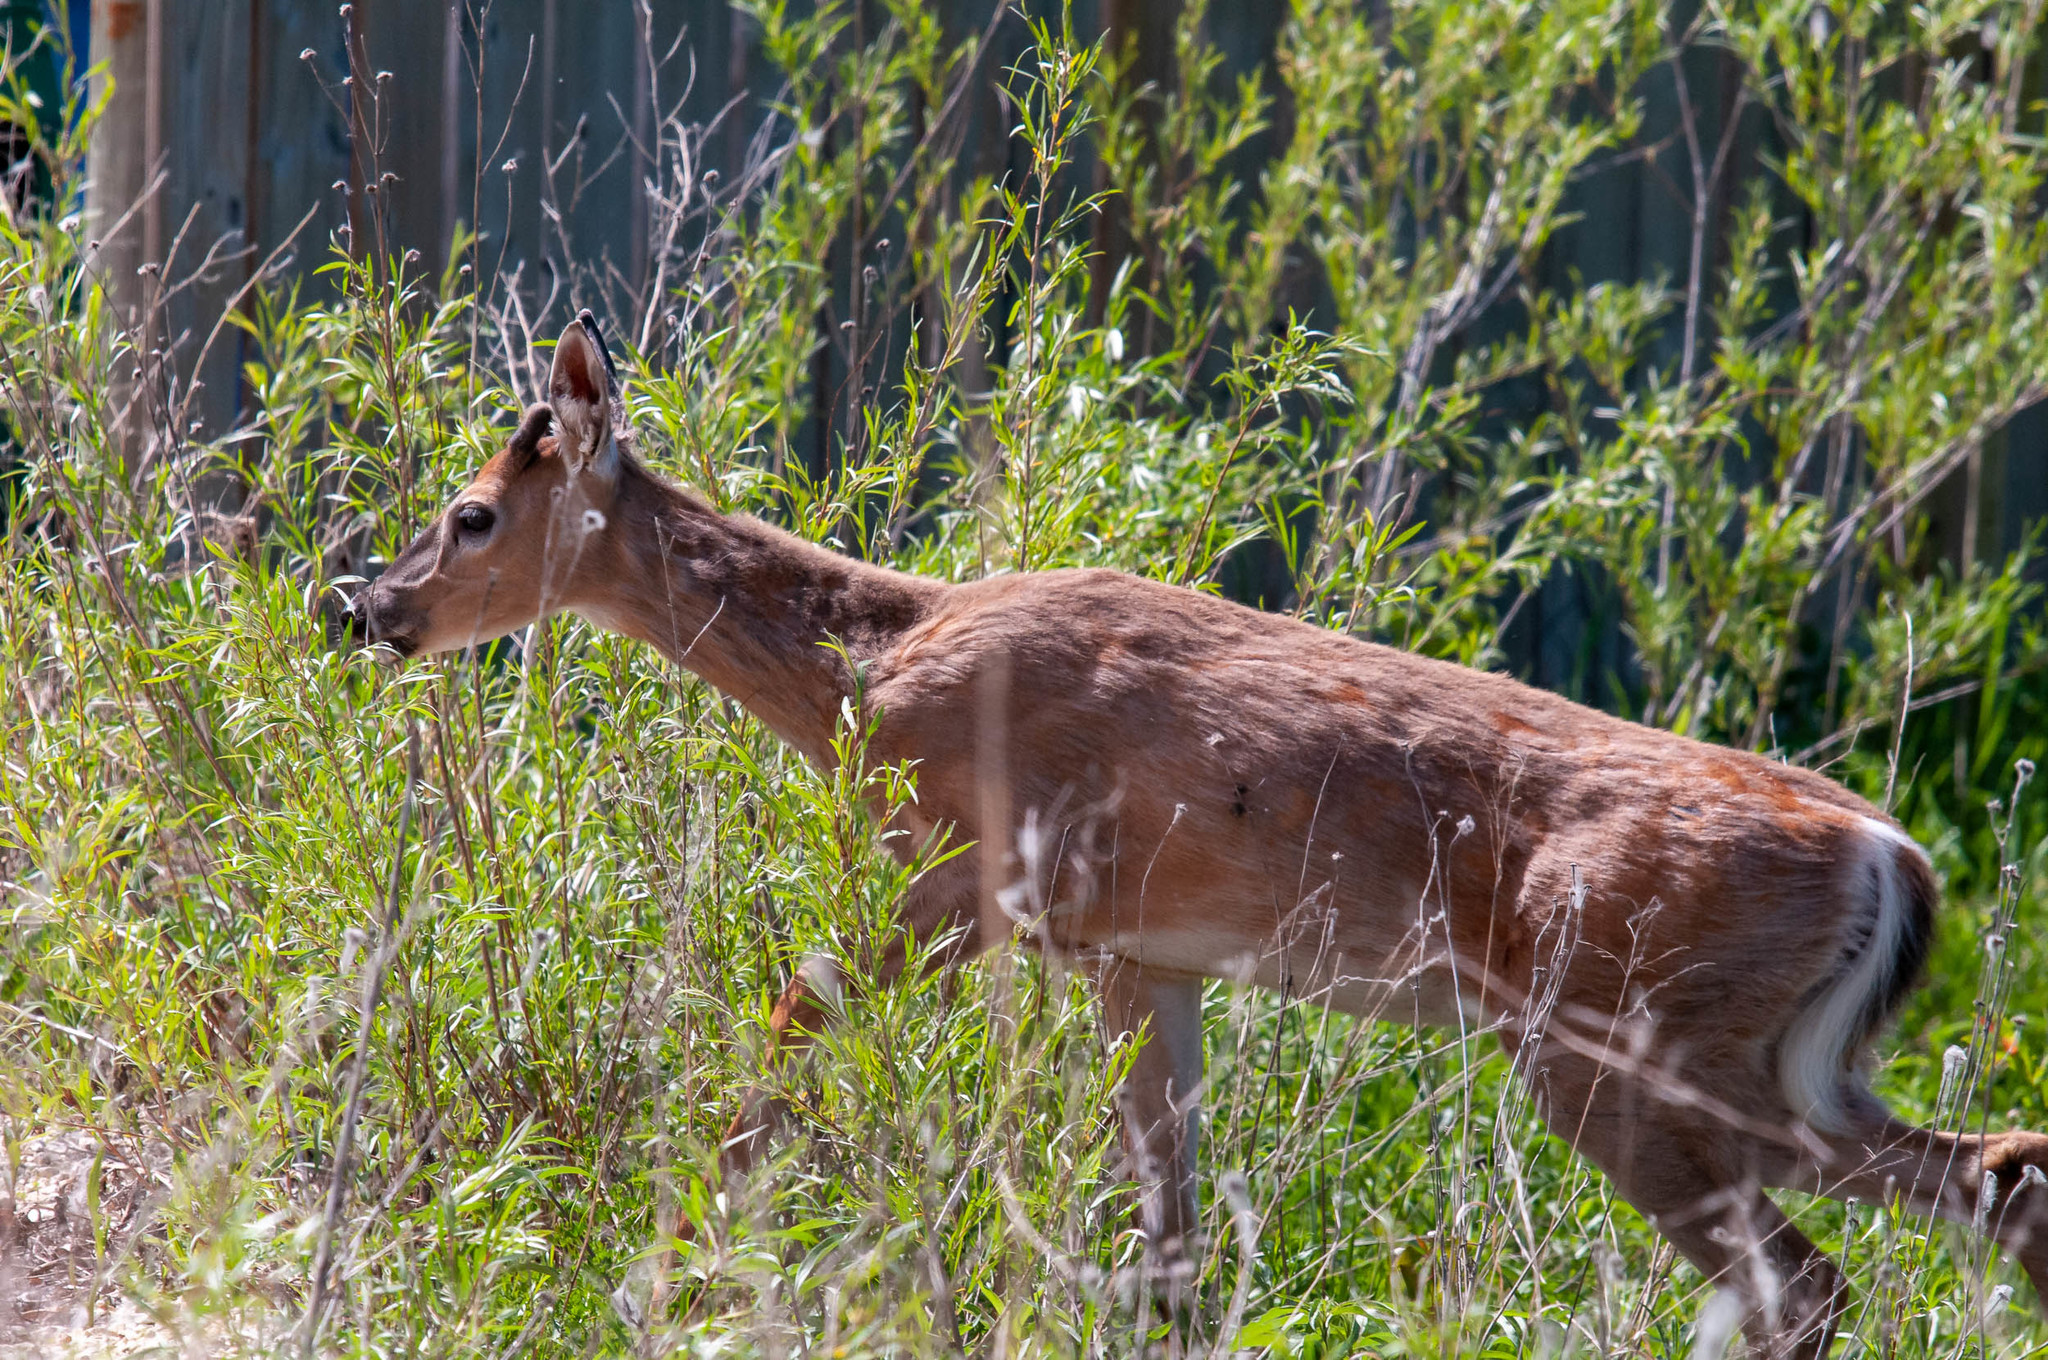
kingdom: Animalia
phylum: Chordata
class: Mammalia
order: Artiodactyla
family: Cervidae
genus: Odocoileus
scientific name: Odocoileus virginianus
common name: White-tailed deer
